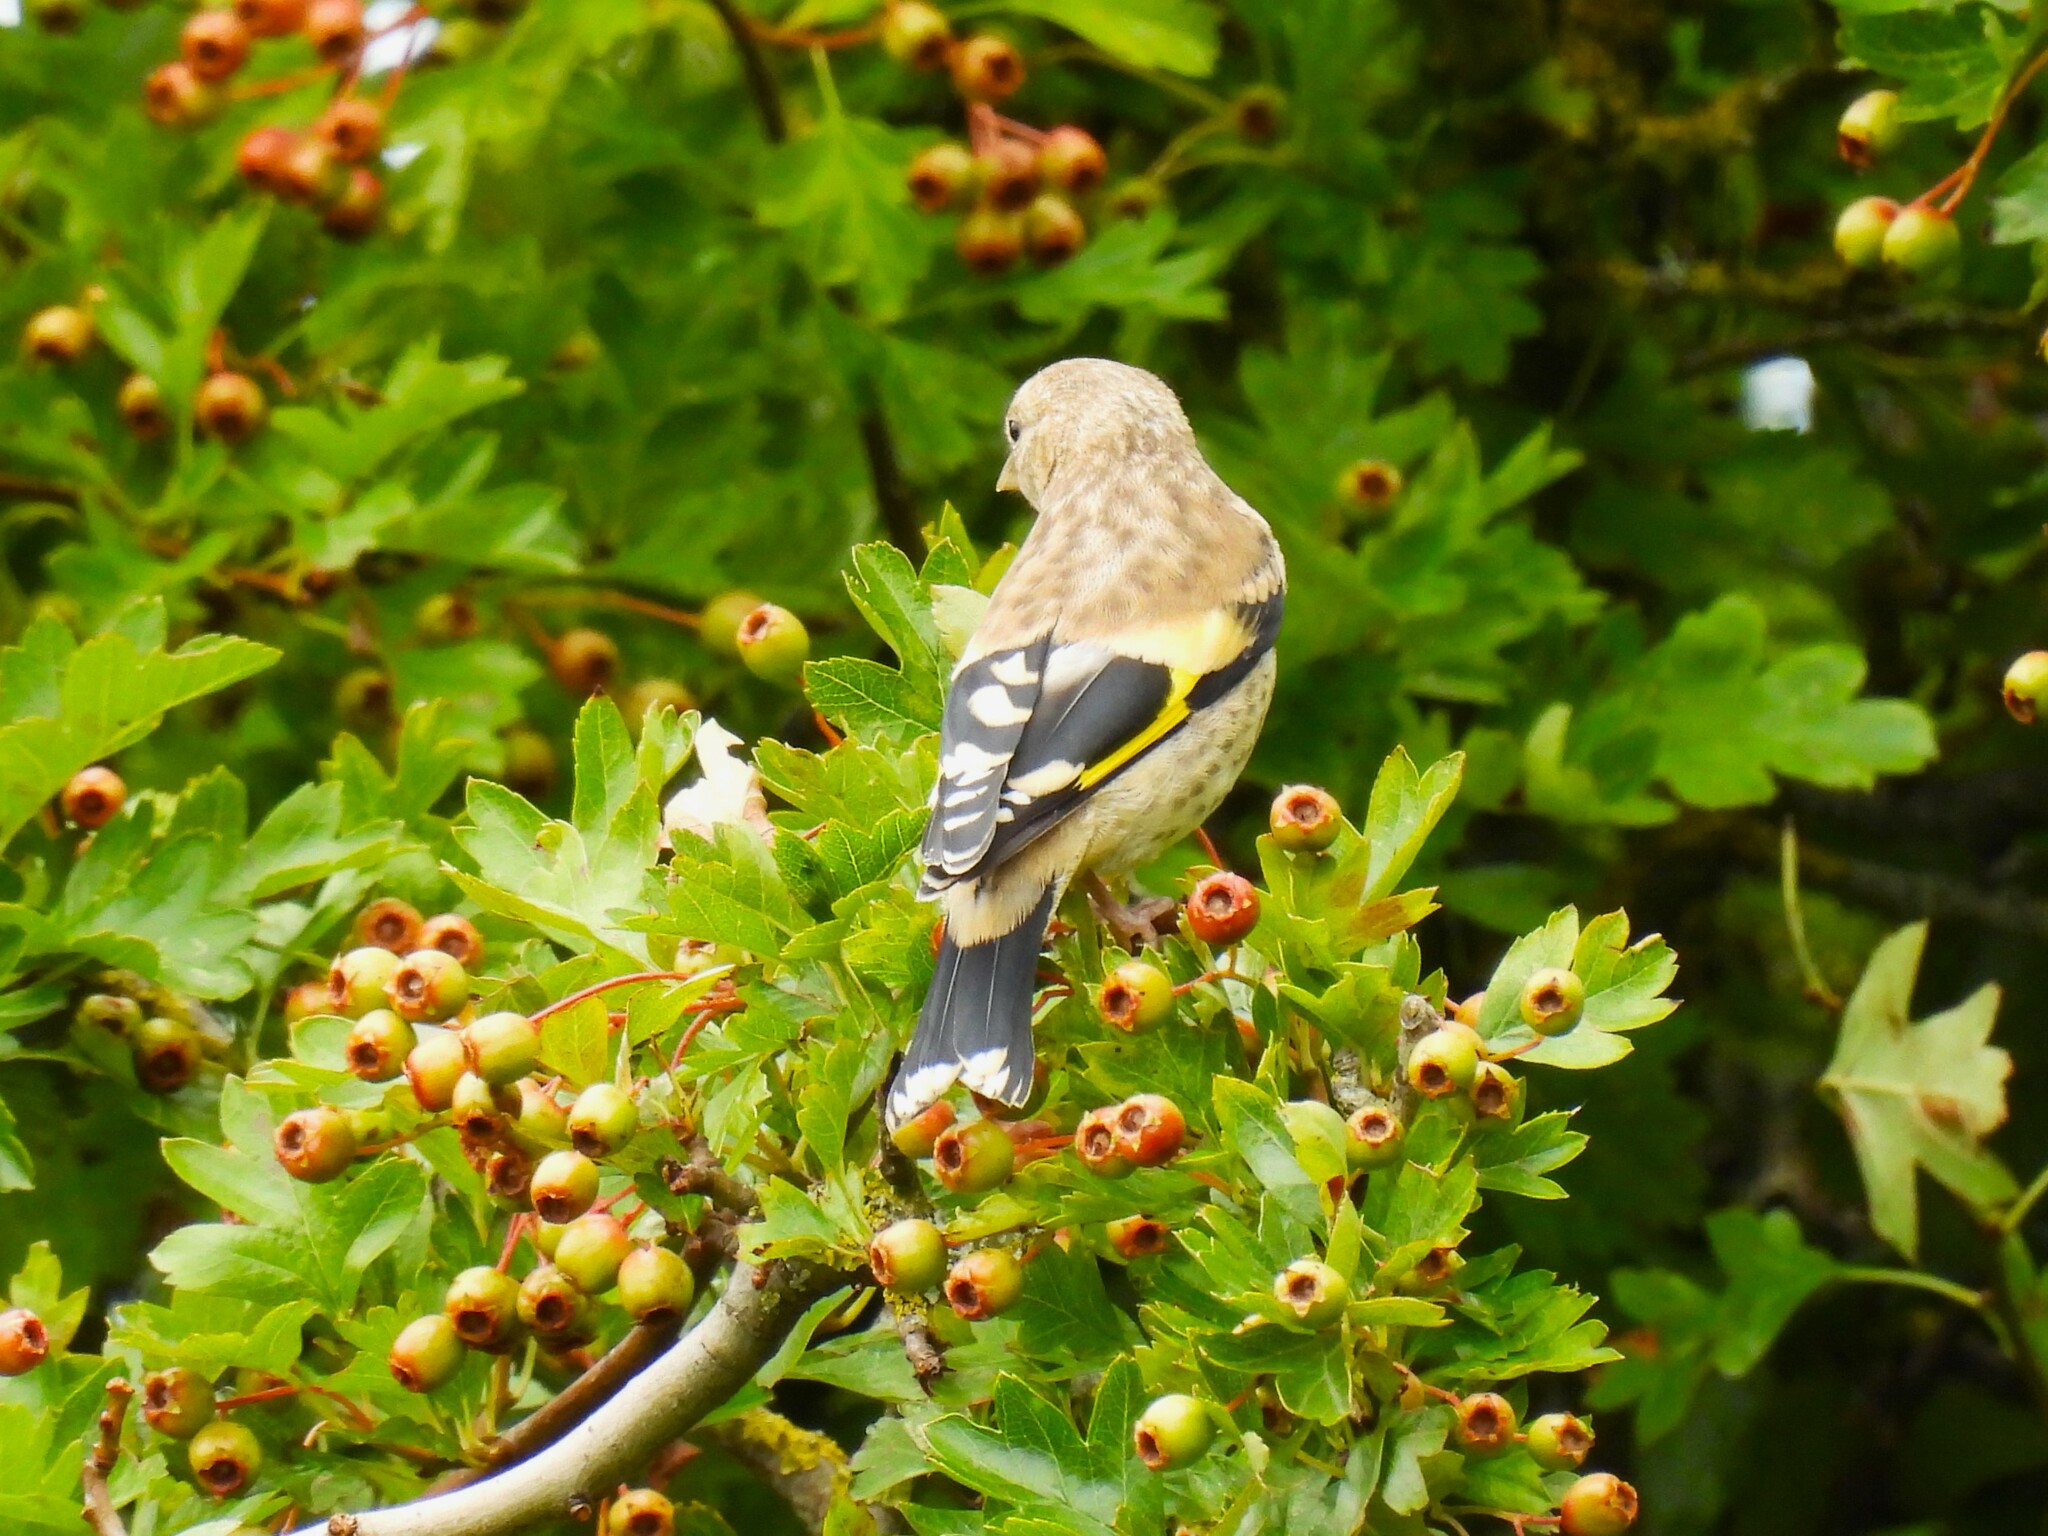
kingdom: Animalia
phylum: Chordata
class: Aves
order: Passeriformes
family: Fringillidae
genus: Carduelis
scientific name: Carduelis carduelis
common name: European goldfinch
